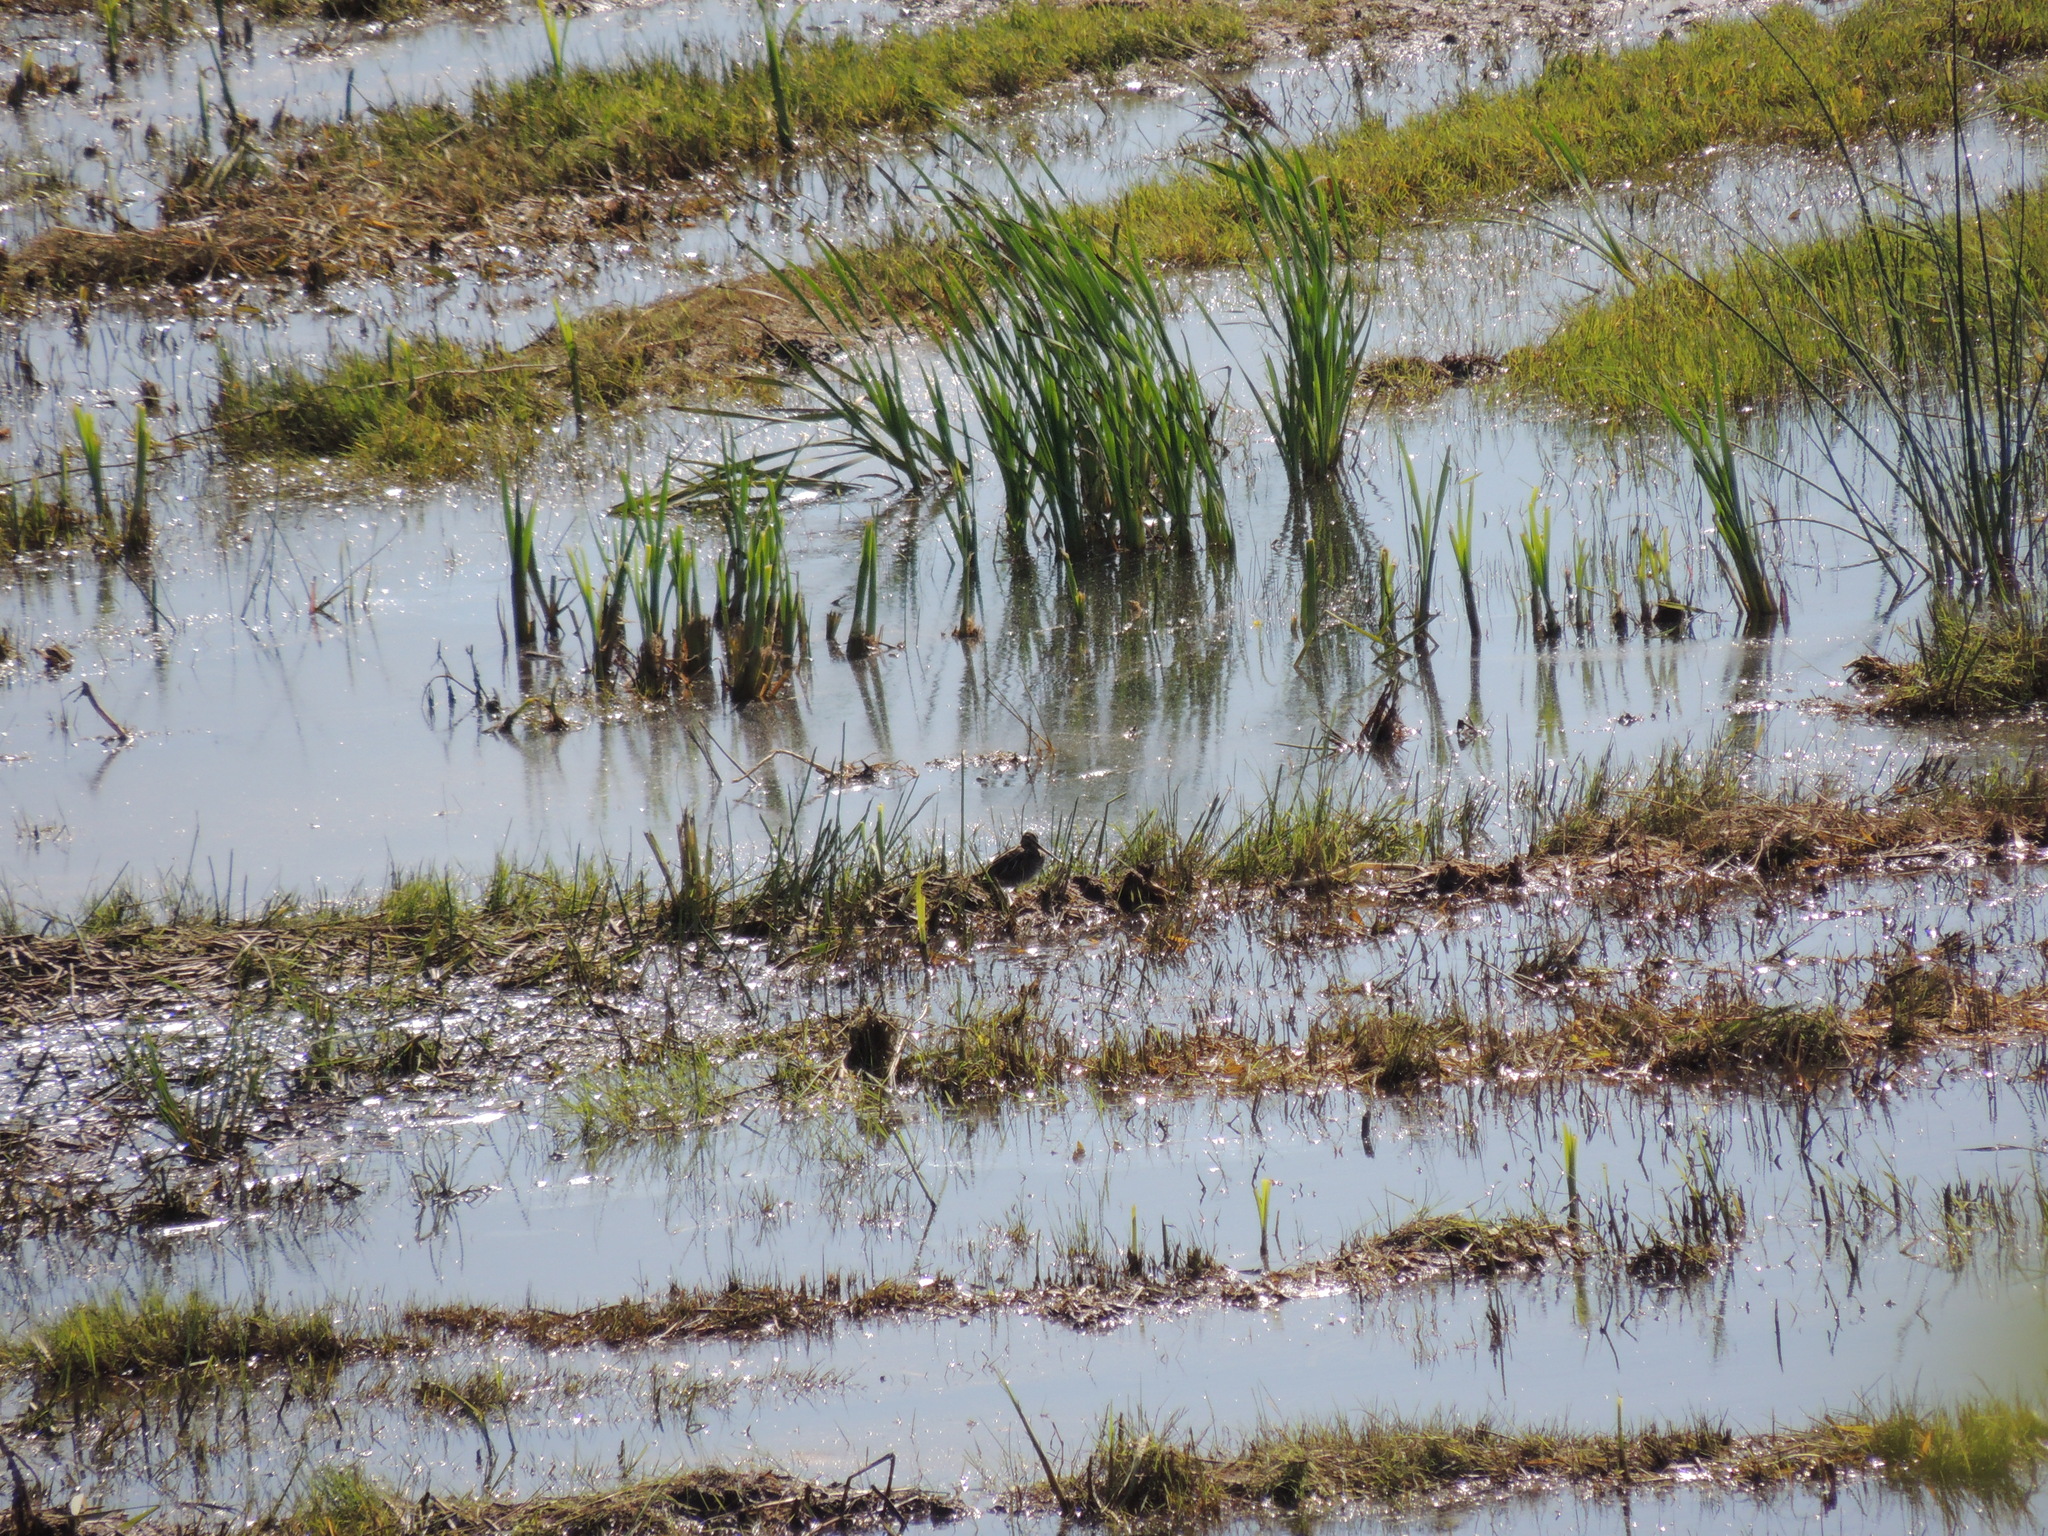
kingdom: Animalia
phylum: Chordata
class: Aves
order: Charadriiformes
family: Scolopacidae
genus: Gallinago
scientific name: Gallinago gallinago
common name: Common snipe
